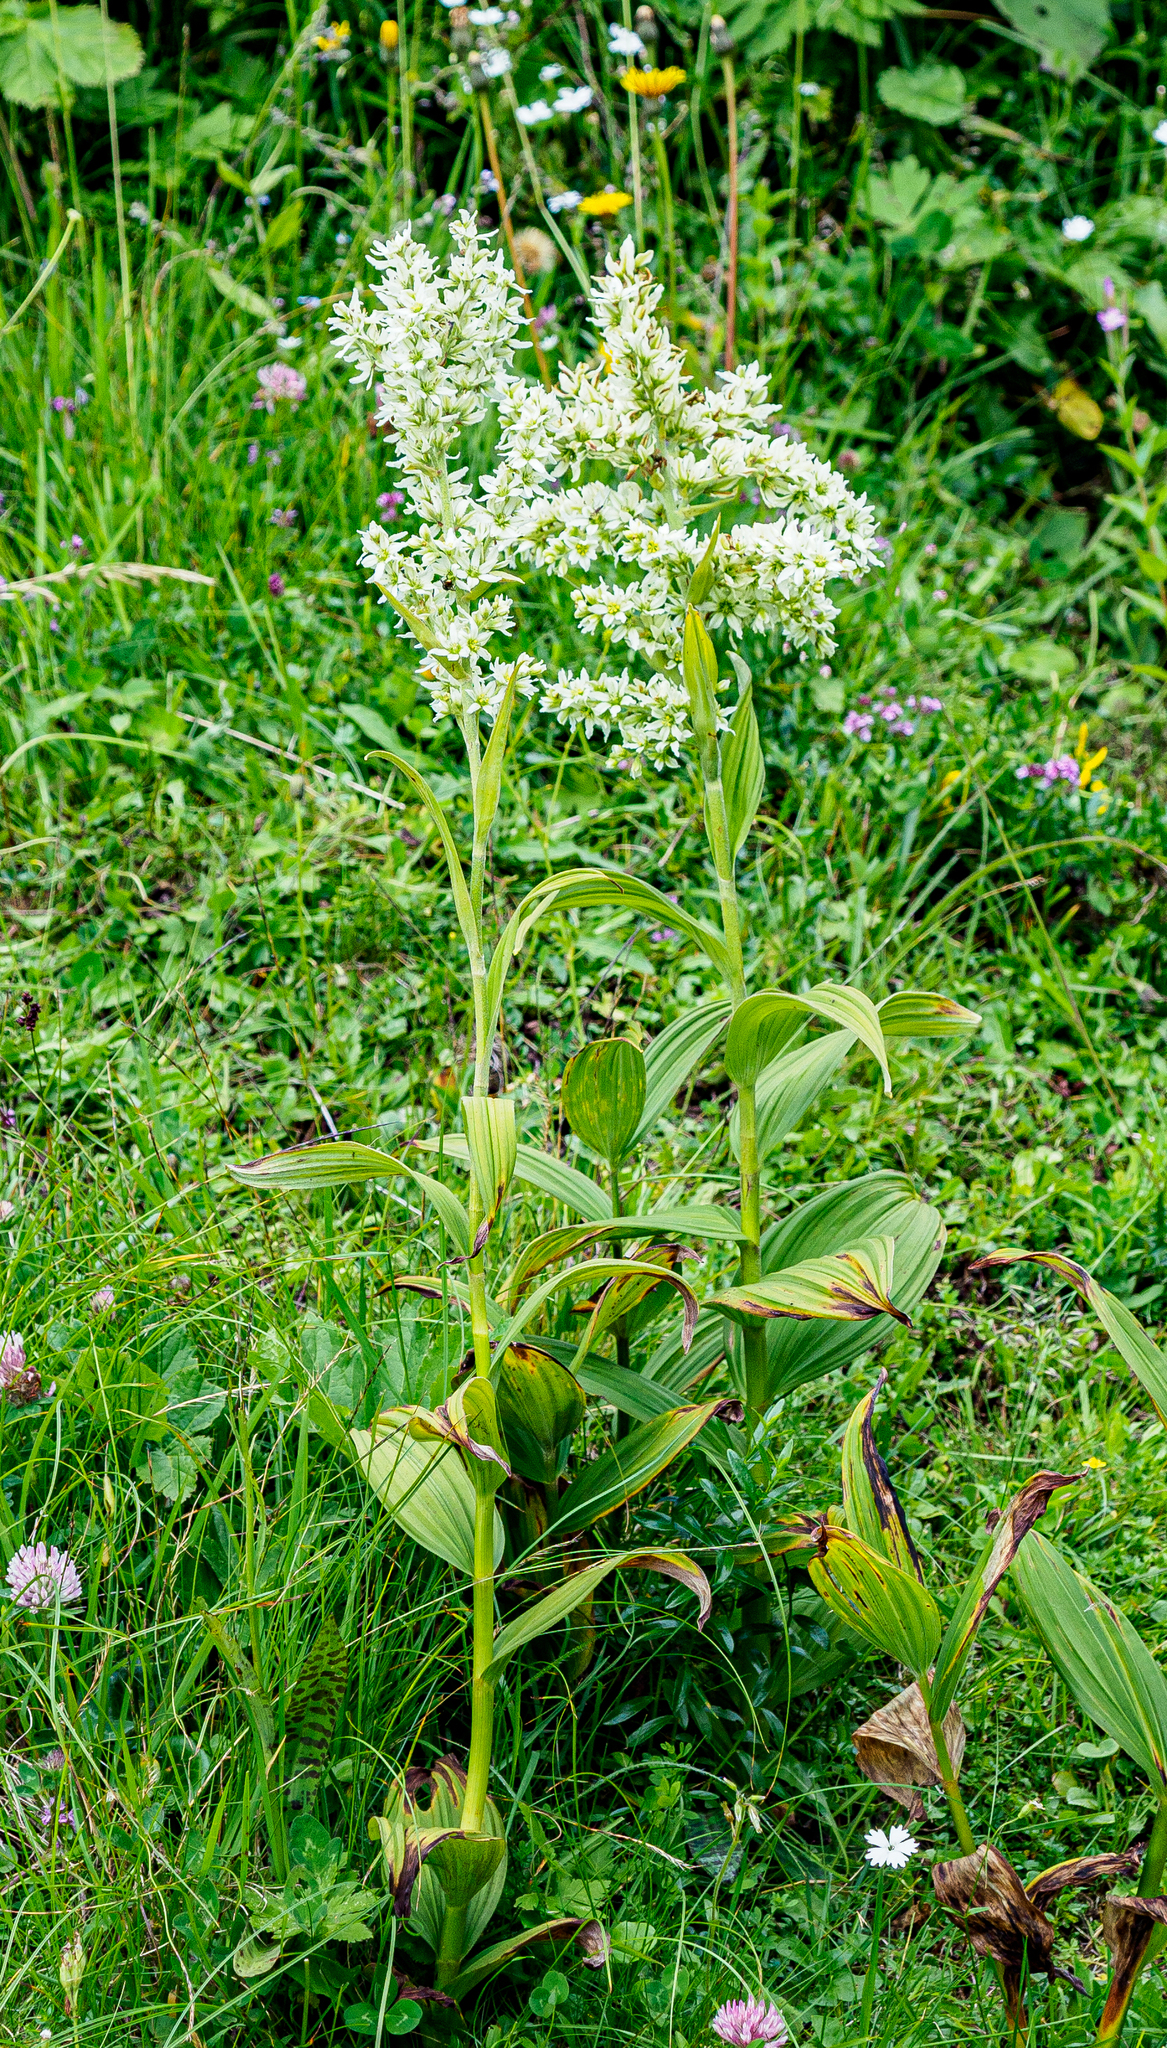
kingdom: Plantae
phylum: Tracheophyta
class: Liliopsida
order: Liliales
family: Melanthiaceae
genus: Veratrum
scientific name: Veratrum album
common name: White veratrum
